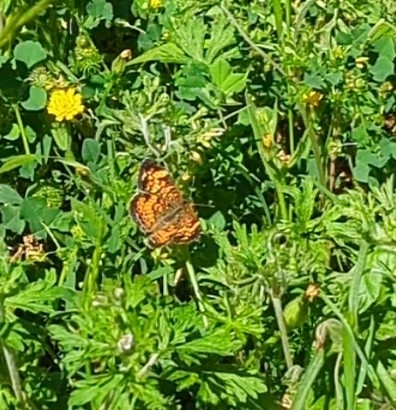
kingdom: Animalia
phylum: Arthropoda
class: Insecta
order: Lepidoptera
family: Nymphalidae
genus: Phyciodes
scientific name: Phyciodes tharos
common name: Pearl crescent
